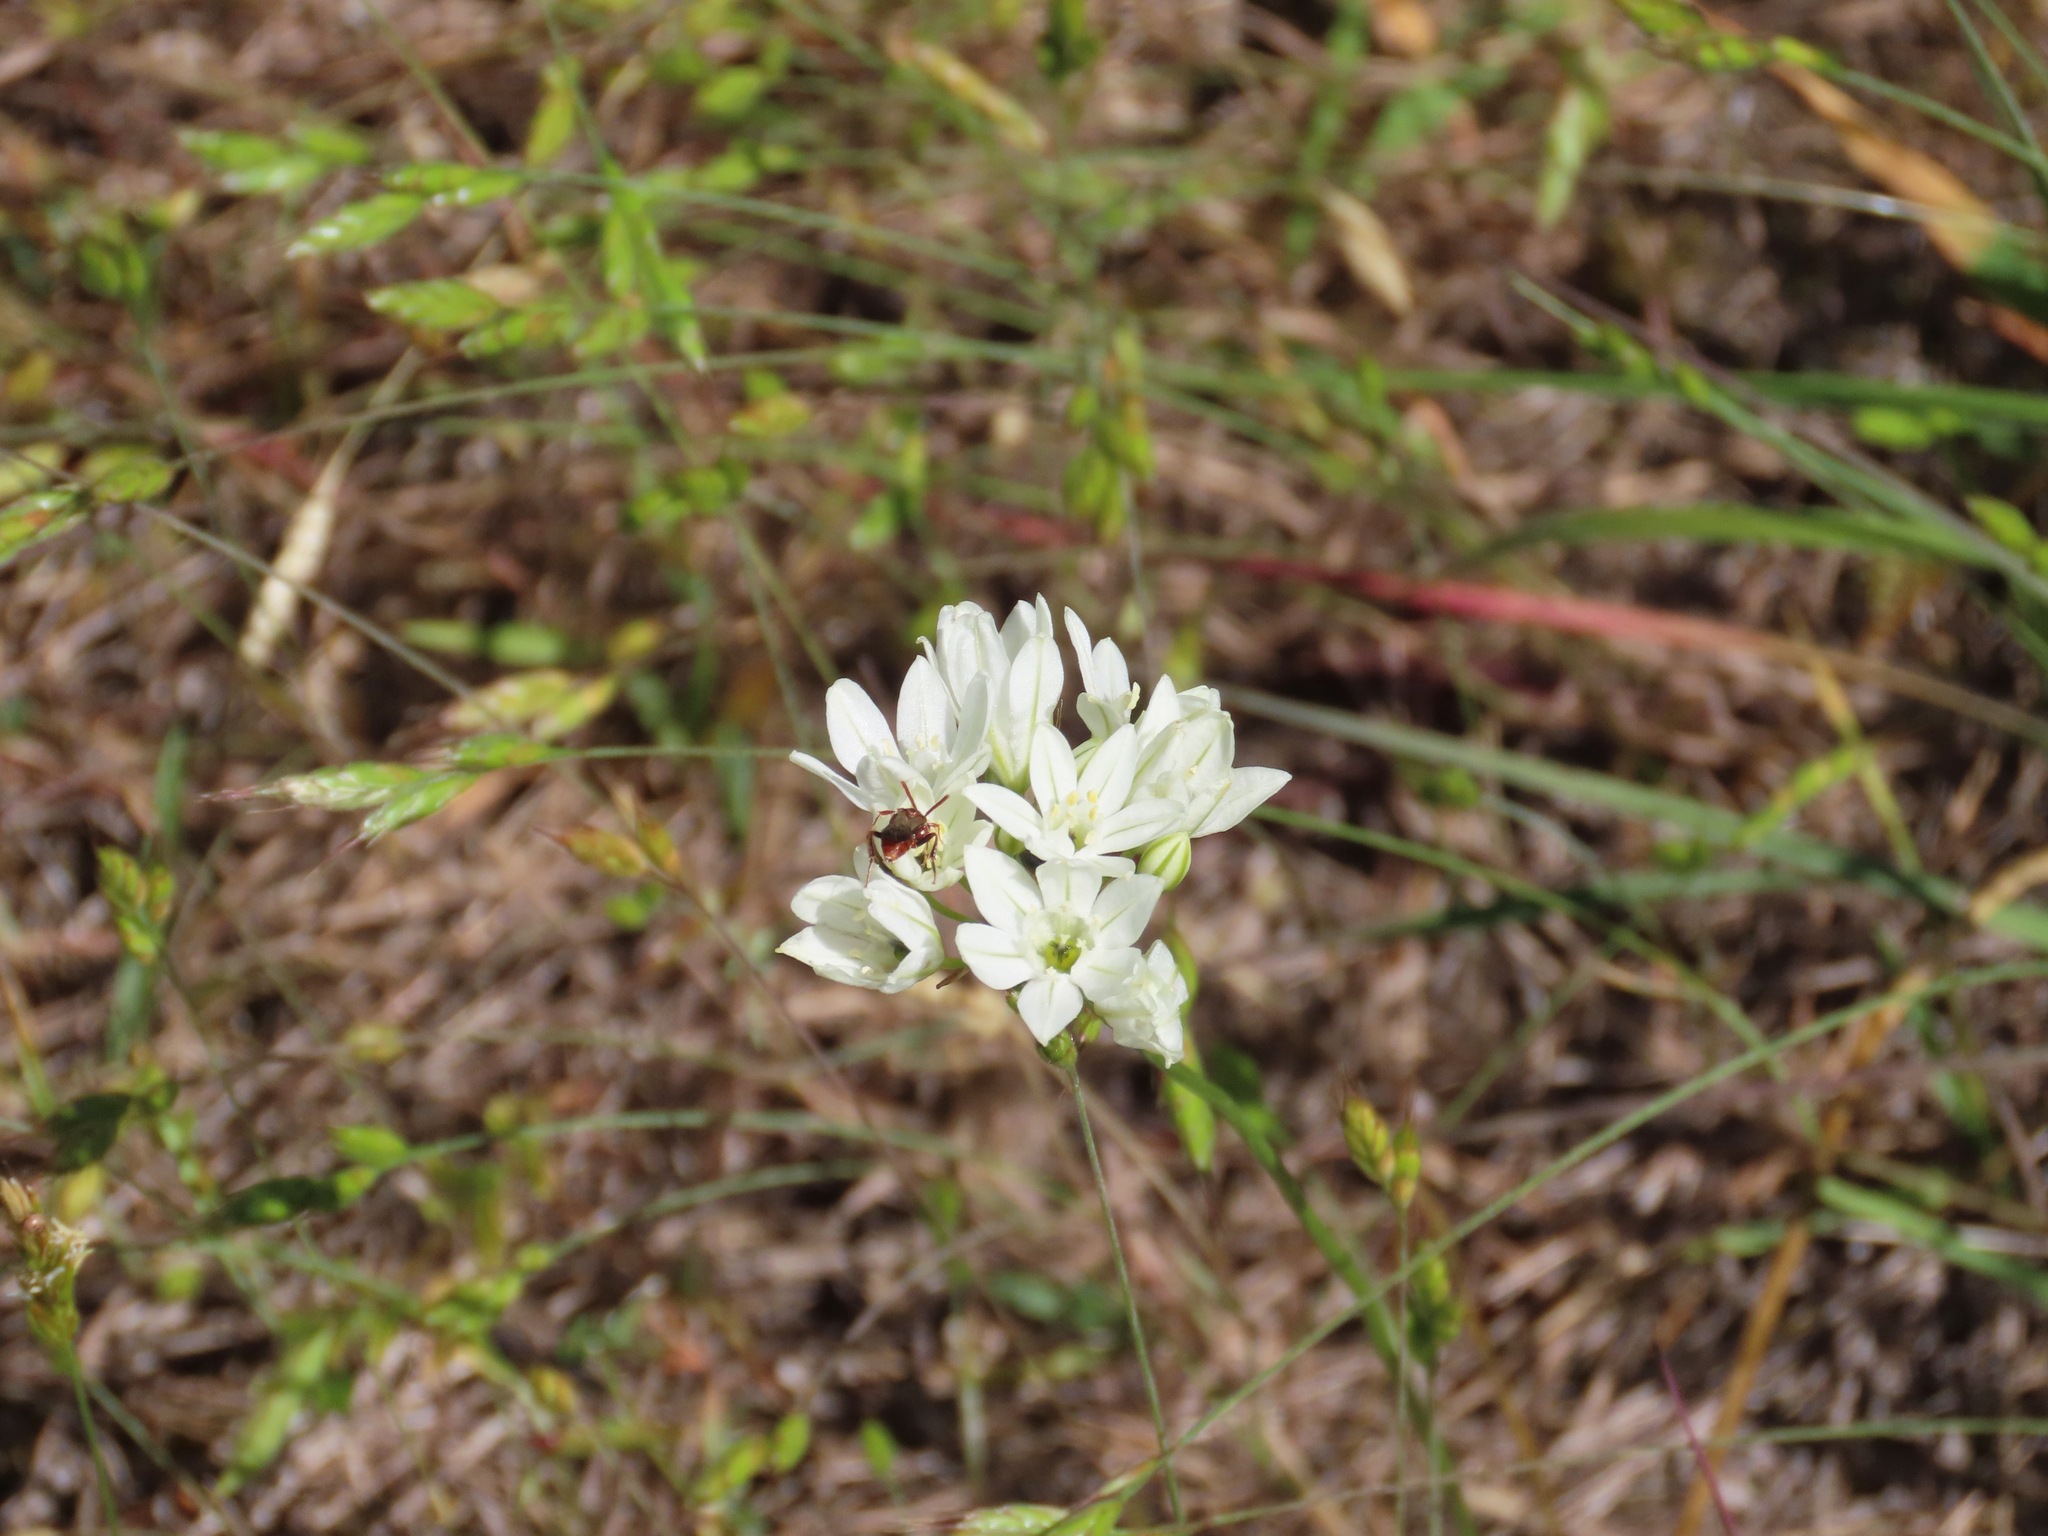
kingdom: Plantae
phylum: Tracheophyta
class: Liliopsida
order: Asparagales
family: Asparagaceae
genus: Triteleia
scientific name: Triteleia hyacinthina
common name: White brodiaea
